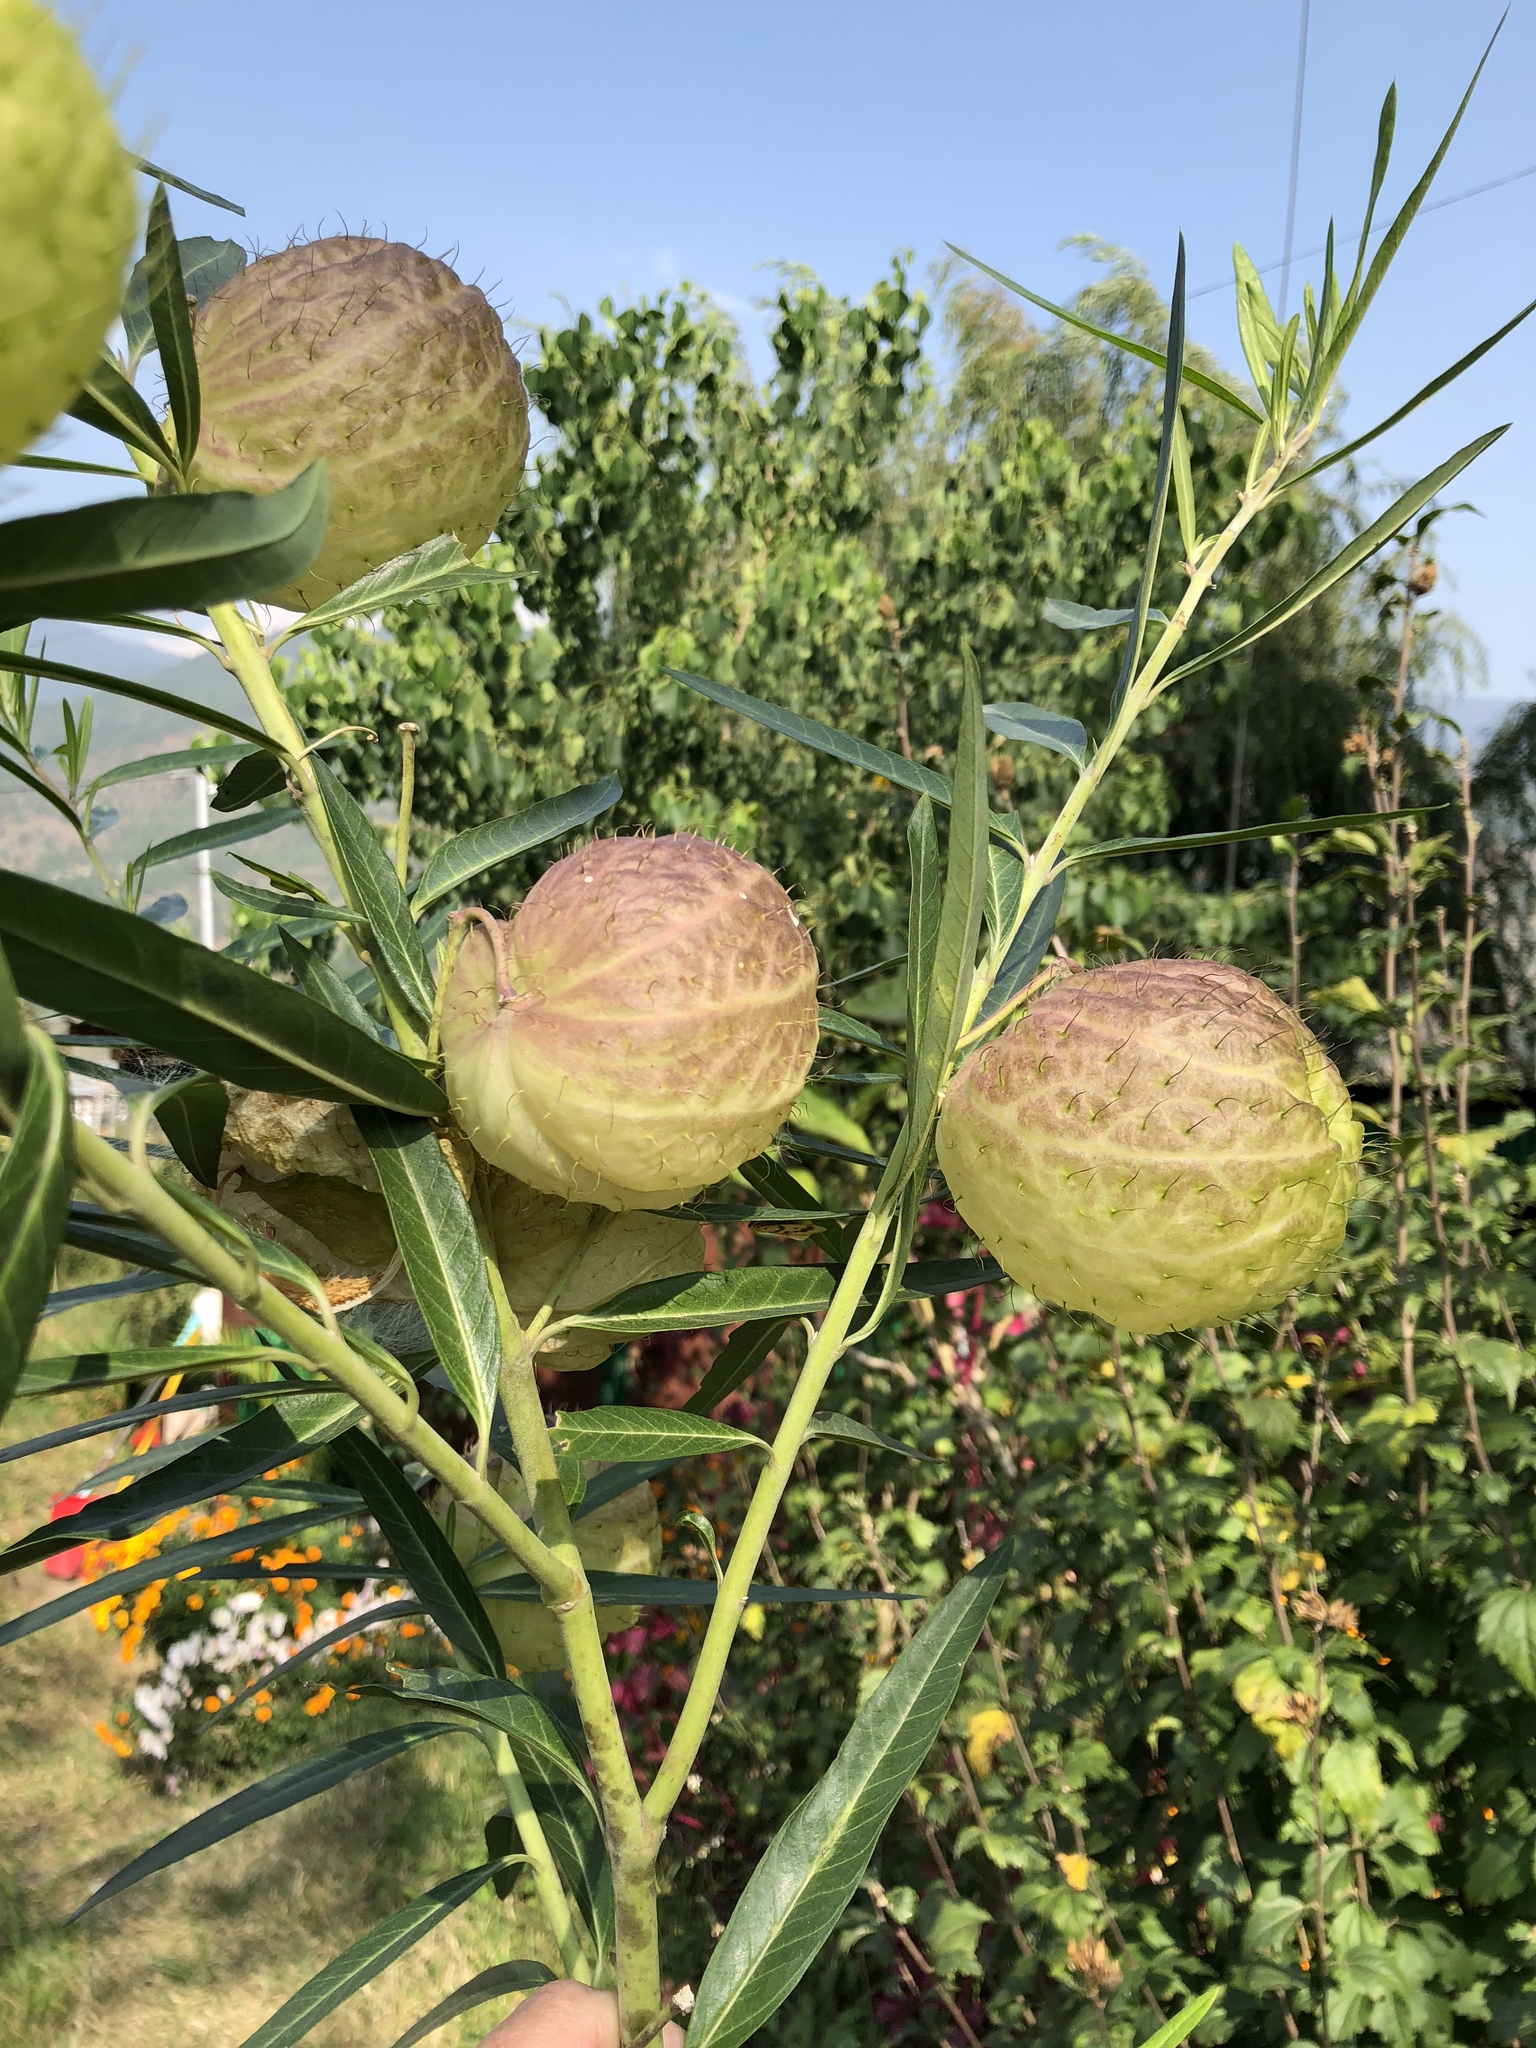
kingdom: Plantae
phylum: Tracheophyta
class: Magnoliopsida
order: Gentianales
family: Apocynaceae
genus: Gomphocarpus
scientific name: Gomphocarpus physocarpus
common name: Balloon cotton bush
